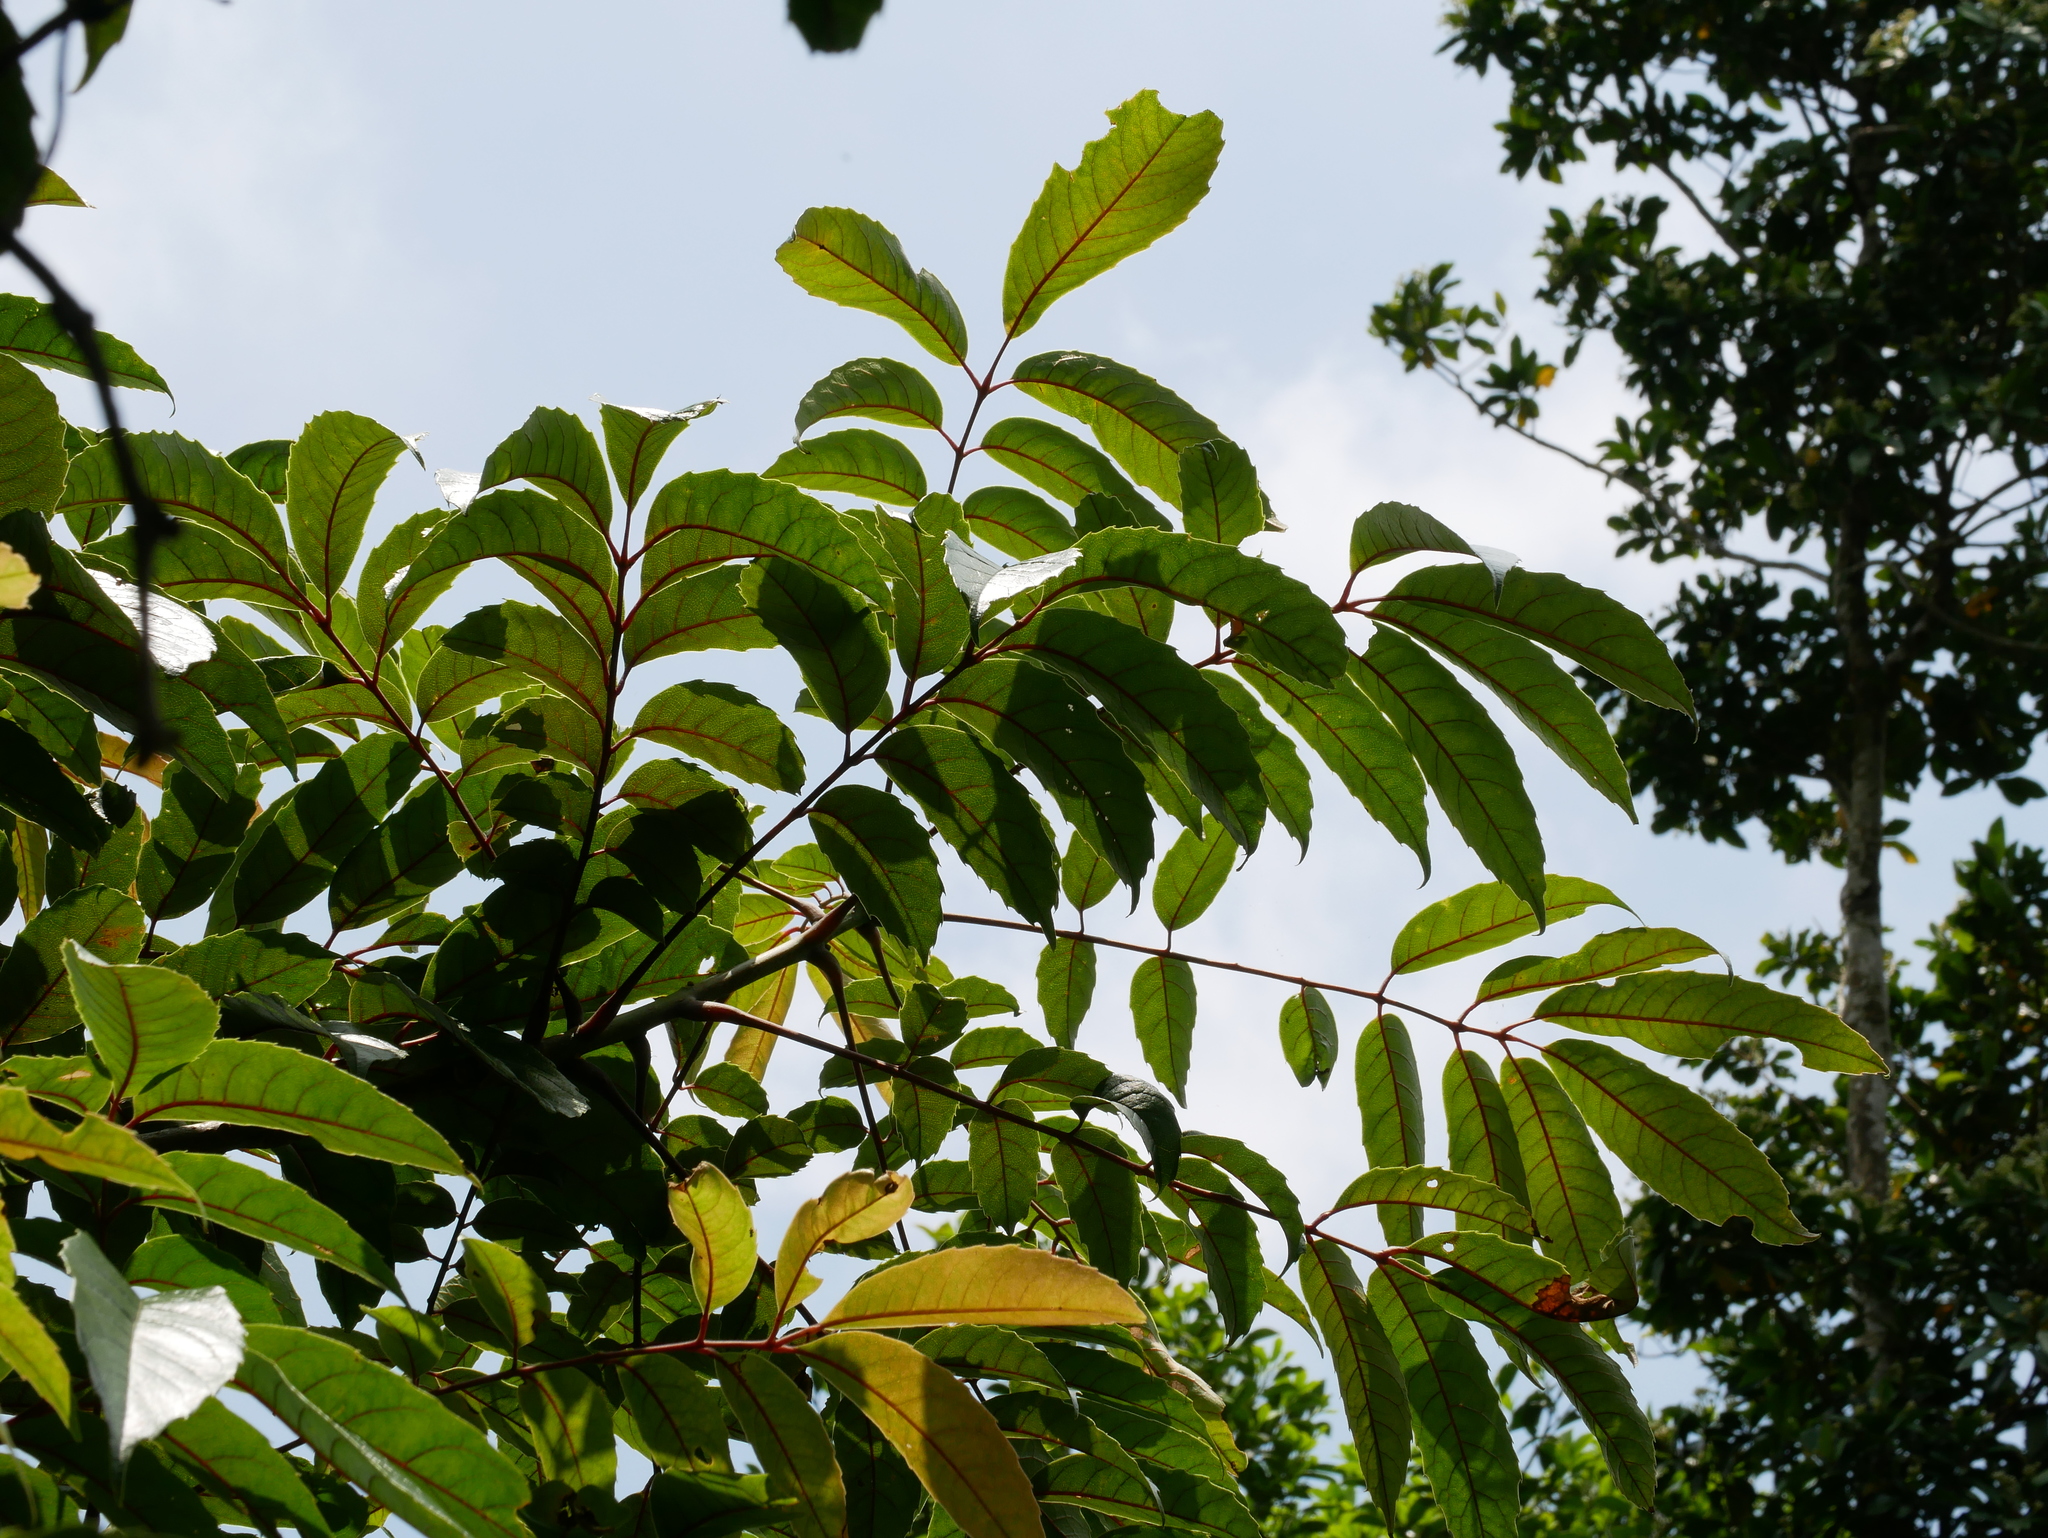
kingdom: Plantae
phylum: Tracheophyta
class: Magnoliopsida
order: Proteales
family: Sabiaceae
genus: Meliosma
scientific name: Meliosma rhoifolia
